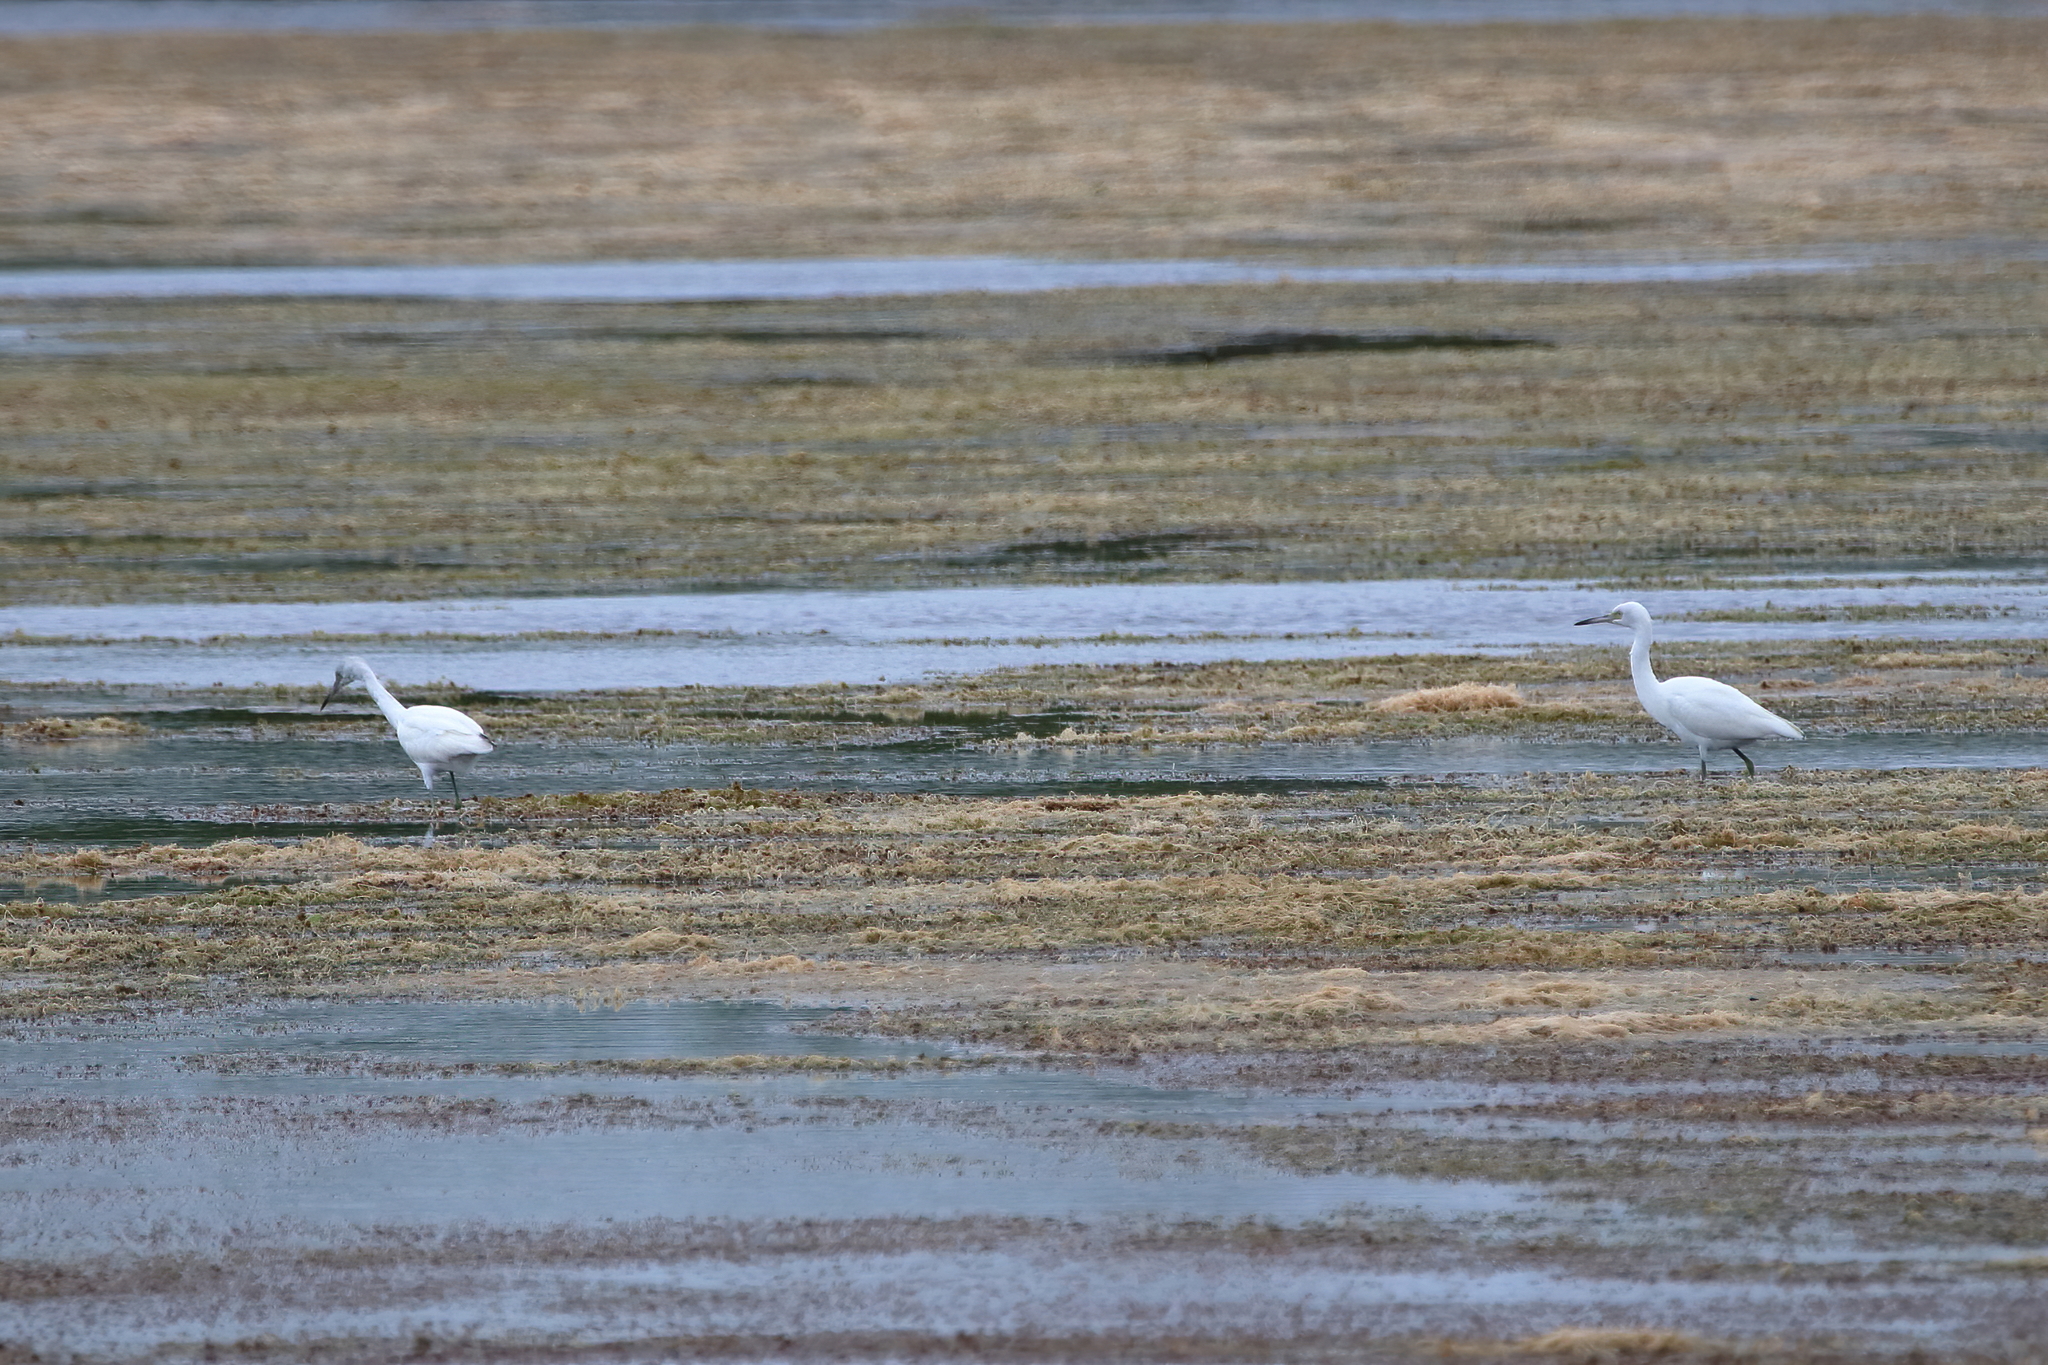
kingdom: Animalia
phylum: Chordata
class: Aves
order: Pelecaniformes
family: Ardeidae
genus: Egretta
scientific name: Egretta caerulea
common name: Little blue heron
